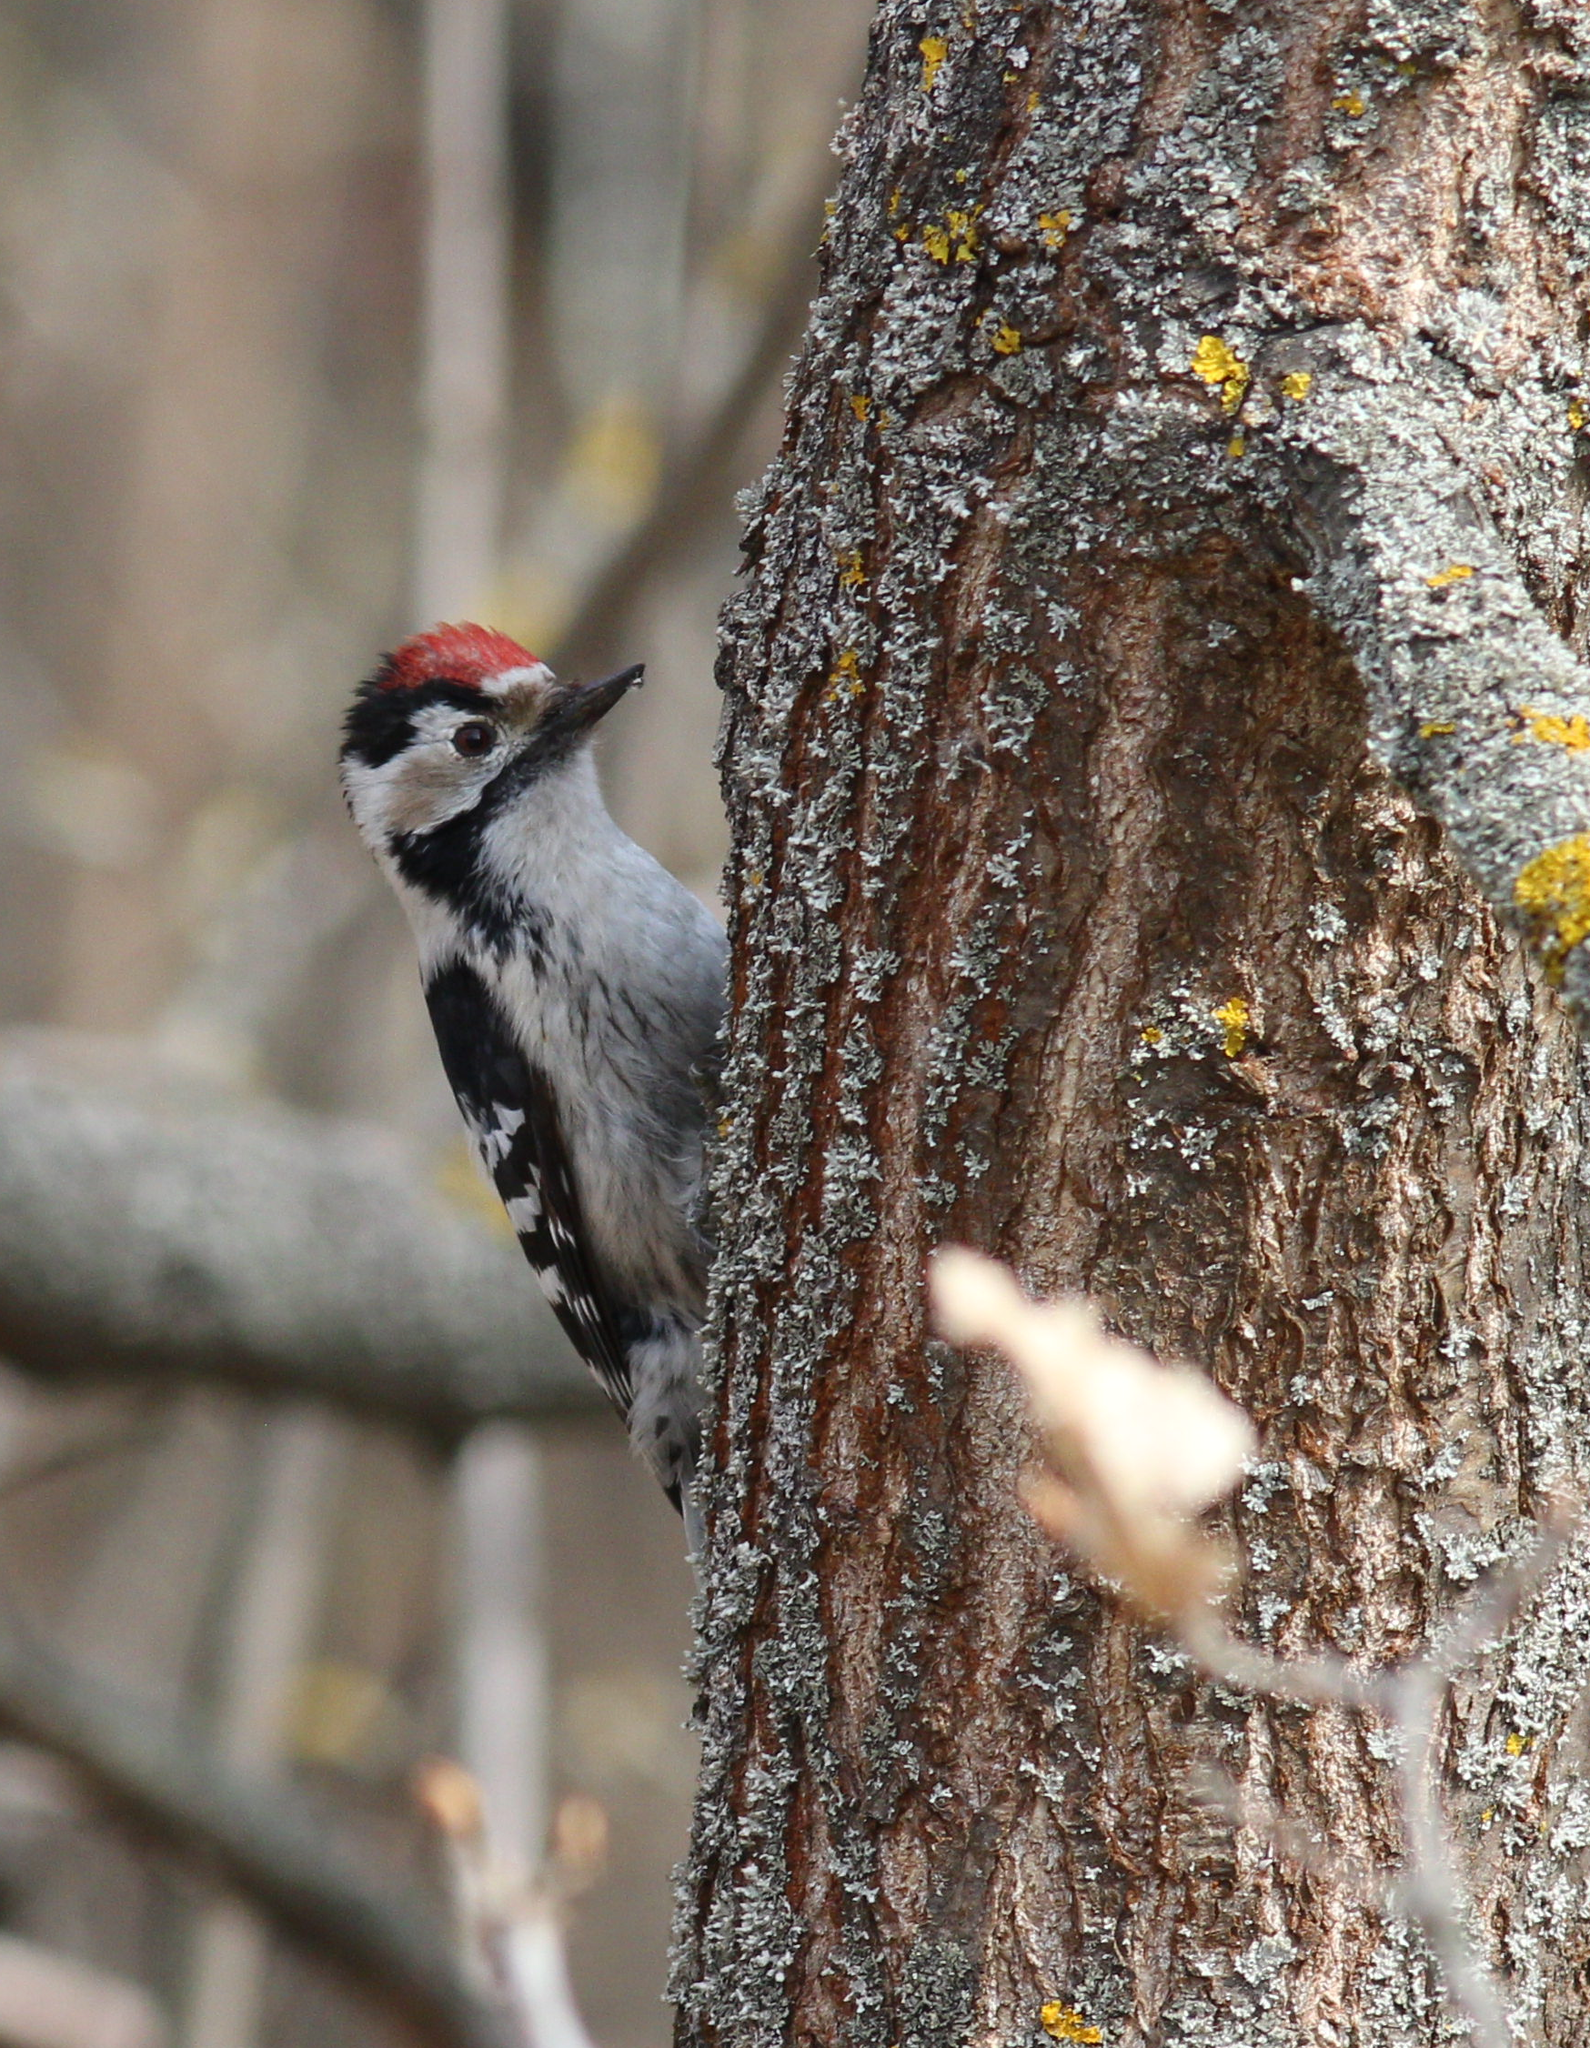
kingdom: Animalia
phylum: Chordata
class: Aves
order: Piciformes
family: Picidae
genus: Dryobates
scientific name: Dryobates minor
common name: Lesser spotted woodpecker
